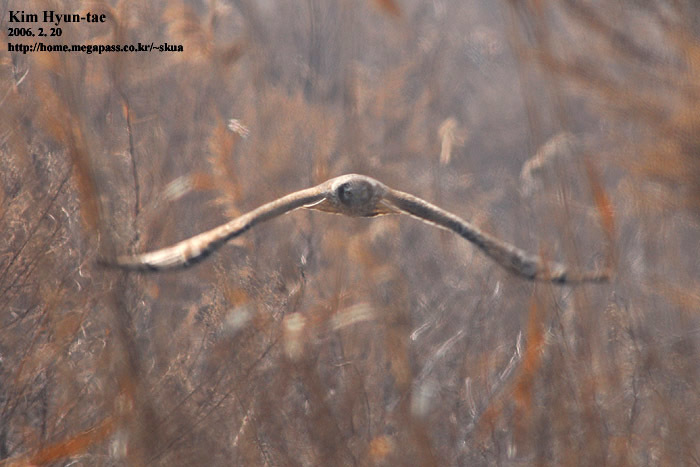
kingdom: Animalia
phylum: Chordata
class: Aves
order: Accipitriformes
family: Accipitridae
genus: Circus
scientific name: Circus cyaneus
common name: Hen harrier
